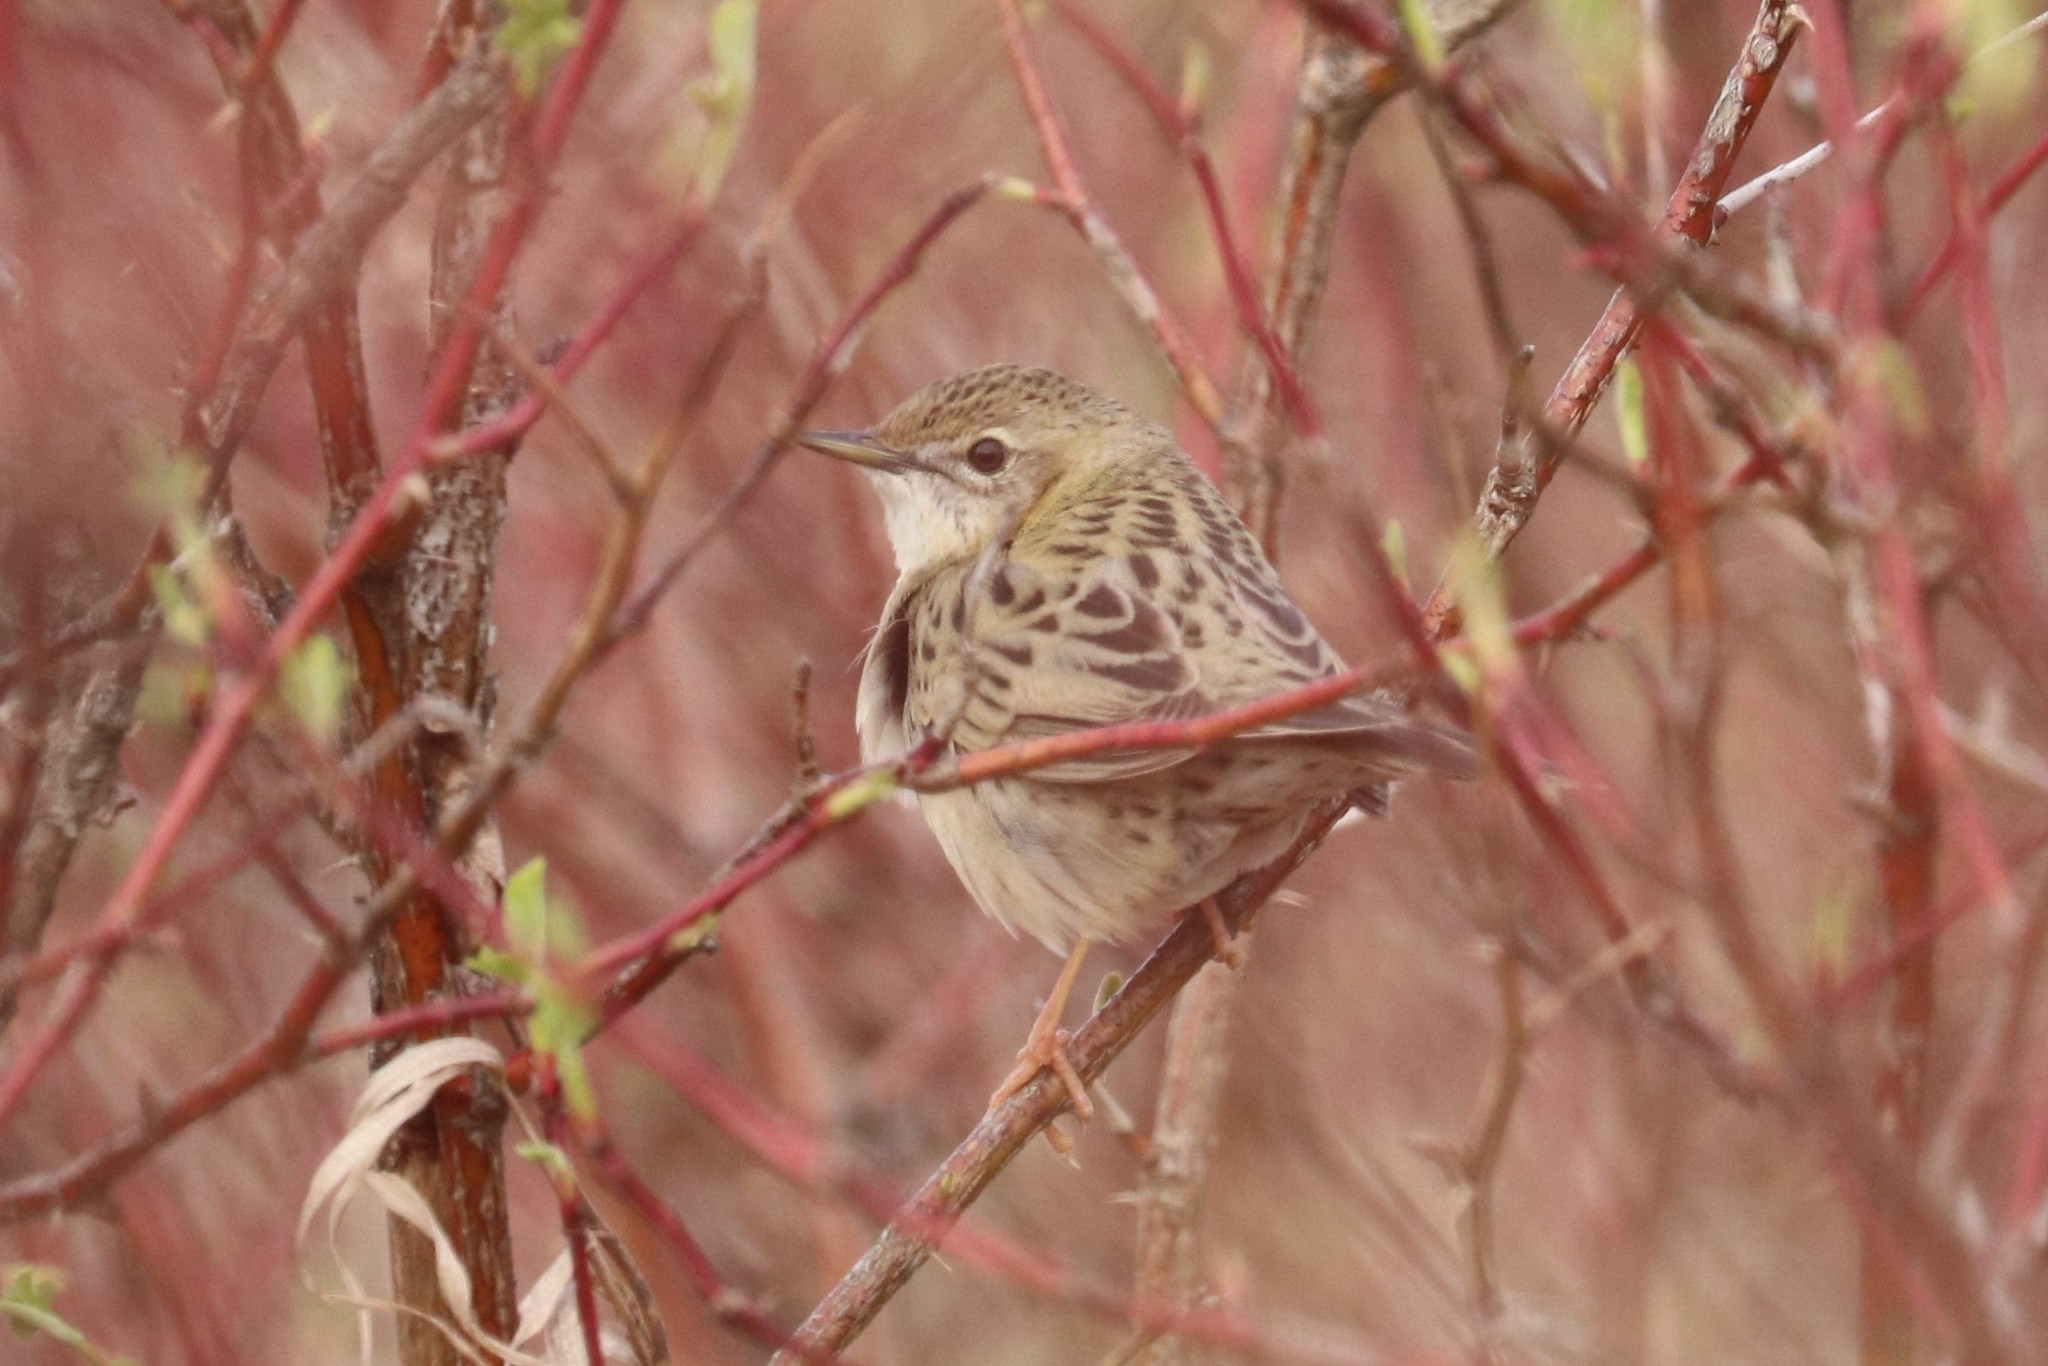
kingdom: Animalia
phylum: Chordata
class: Aves
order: Passeriformes
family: Locustellidae
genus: Locustella
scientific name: Locustella naevia
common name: Common grasshopper warbler
